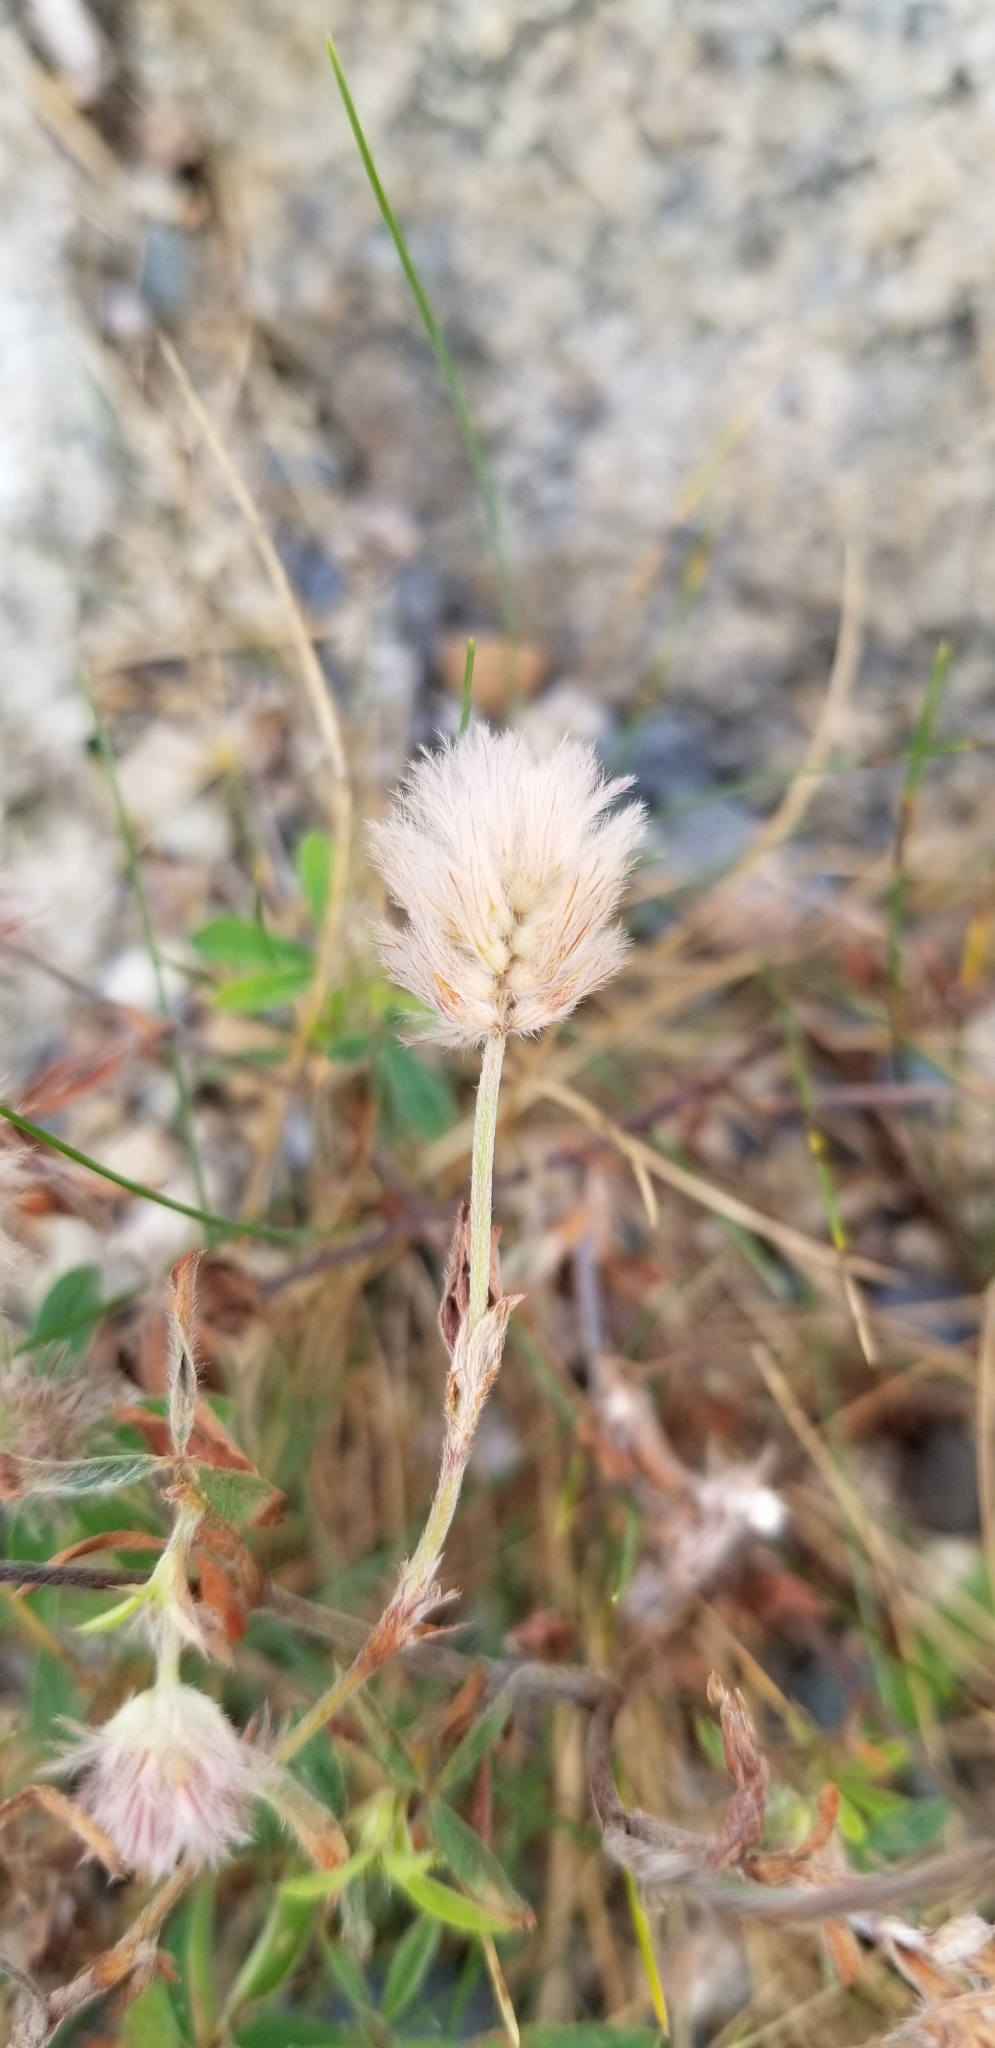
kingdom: Plantae
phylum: Tracheophyta
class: Magnoliopsida
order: Fabales
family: Fabaceae
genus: Trifolium
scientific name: Trifolium arvense
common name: Hare's-foot clover
